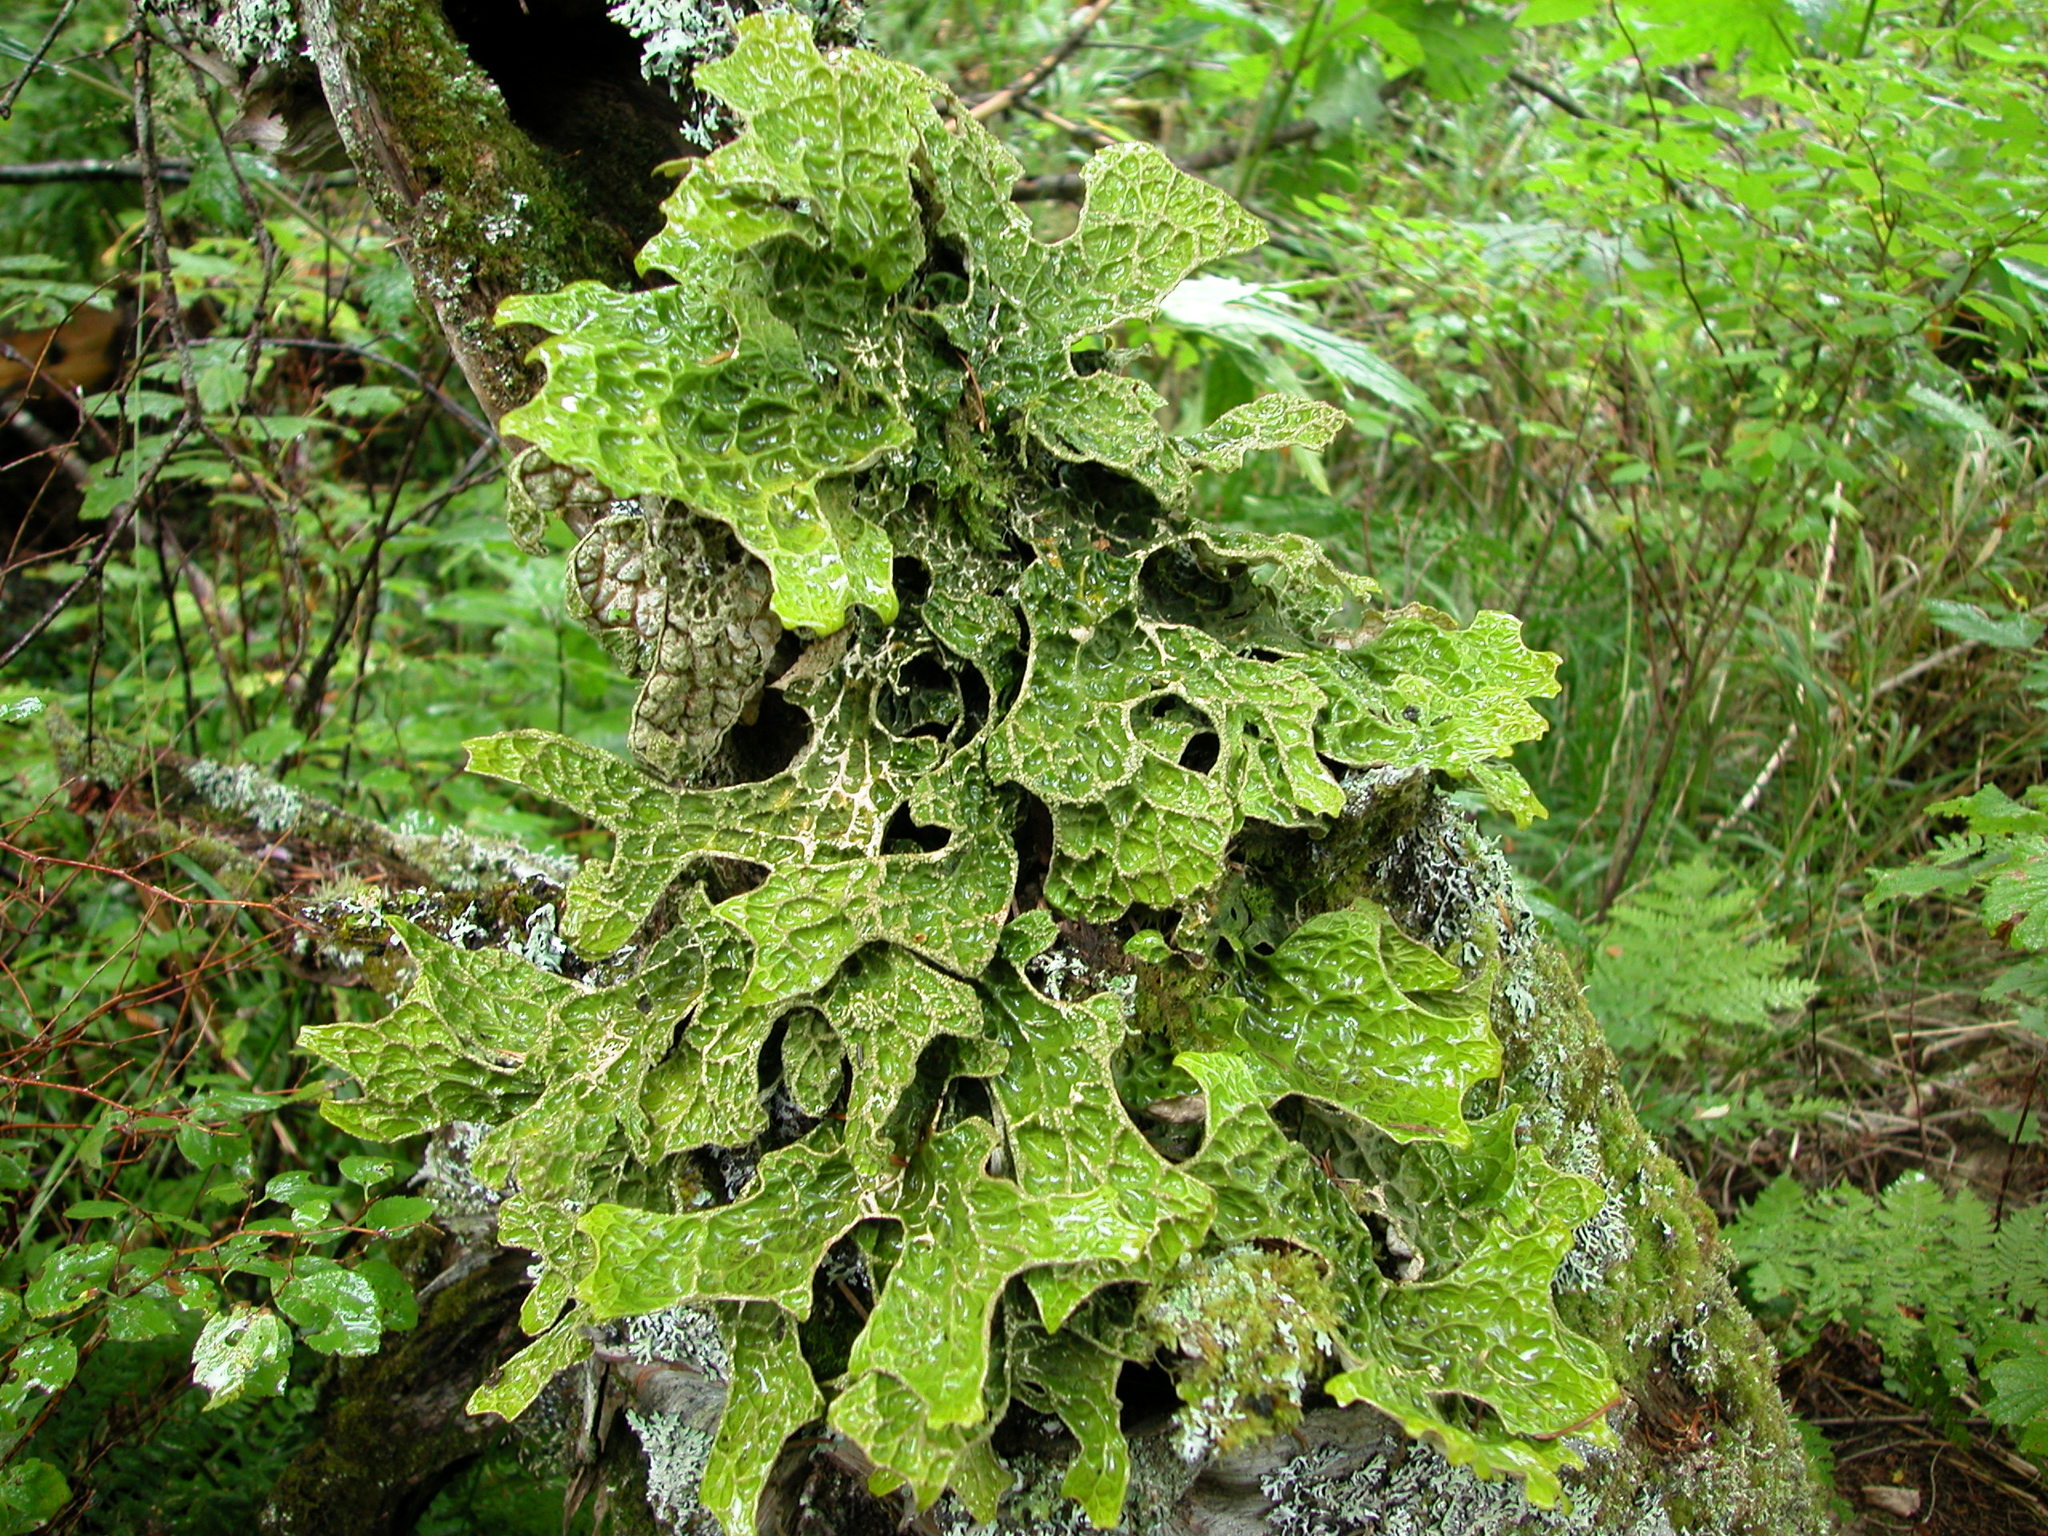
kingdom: Fungi
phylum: Ascomycota
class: Lecanoromycetes
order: Peltigerales
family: Lobariaceae
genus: Lobaria
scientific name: Lobaria pulmonaria
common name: Lungwort
